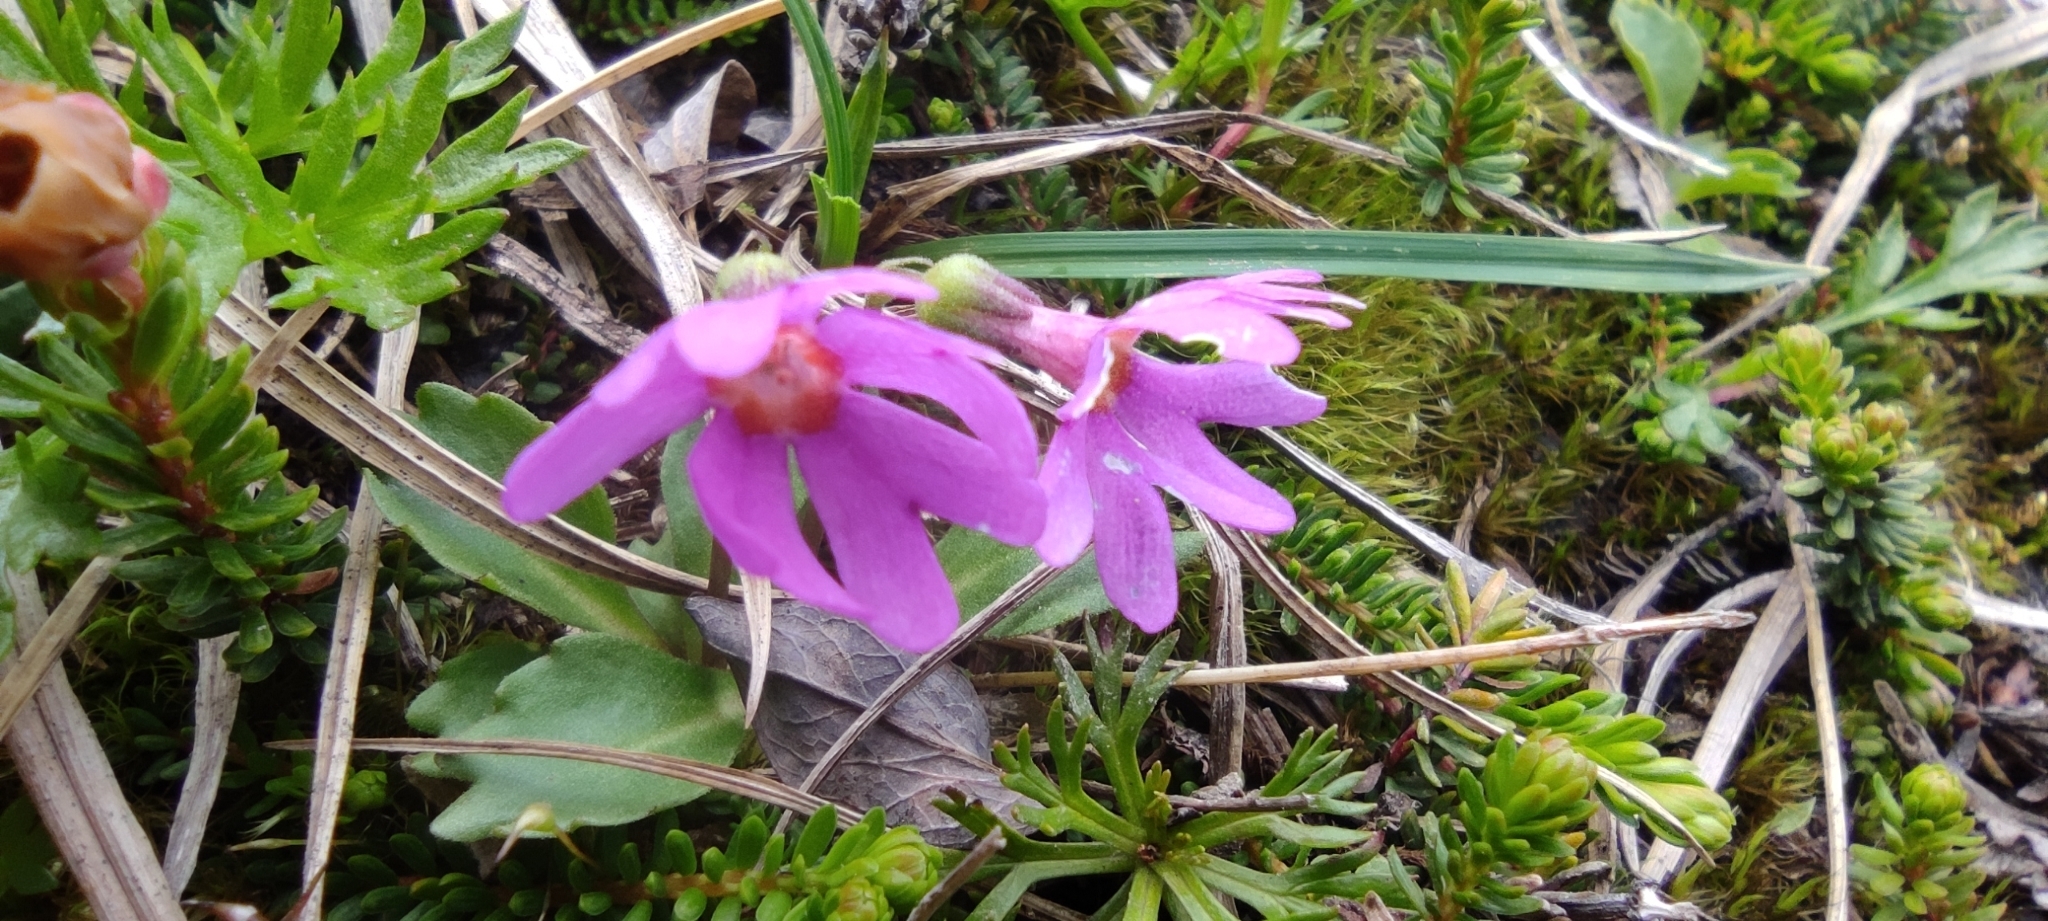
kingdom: Plantae
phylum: Tracheophyta
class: Magnoliopsida
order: Ericales
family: Primulaceae
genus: Primula
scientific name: Primula cuneifolia
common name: Wedge-leaved primrose
